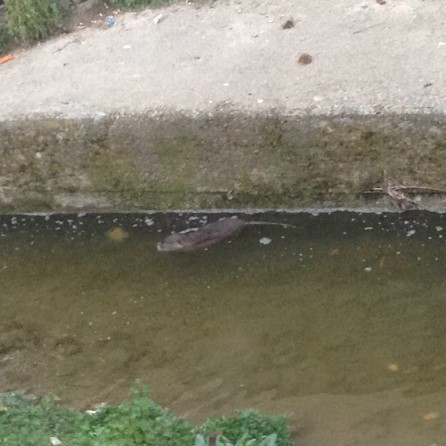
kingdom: Animalia
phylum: Chordata
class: Mammalia
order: Rodentia
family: Myocastoridae
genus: Myocastor
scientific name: Myocastor coypus
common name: Coypu
